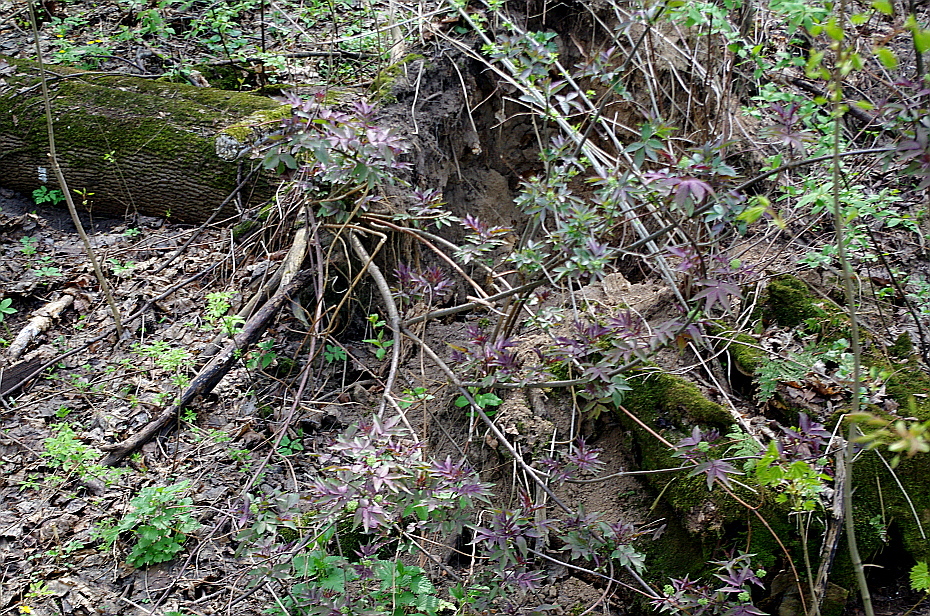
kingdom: Plantae
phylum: Tracheophyta
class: Magnoliopsida
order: Dipsacales
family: Viburnaceae
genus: Sambucus
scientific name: Sambucus racemosa
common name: Red-berried elder
